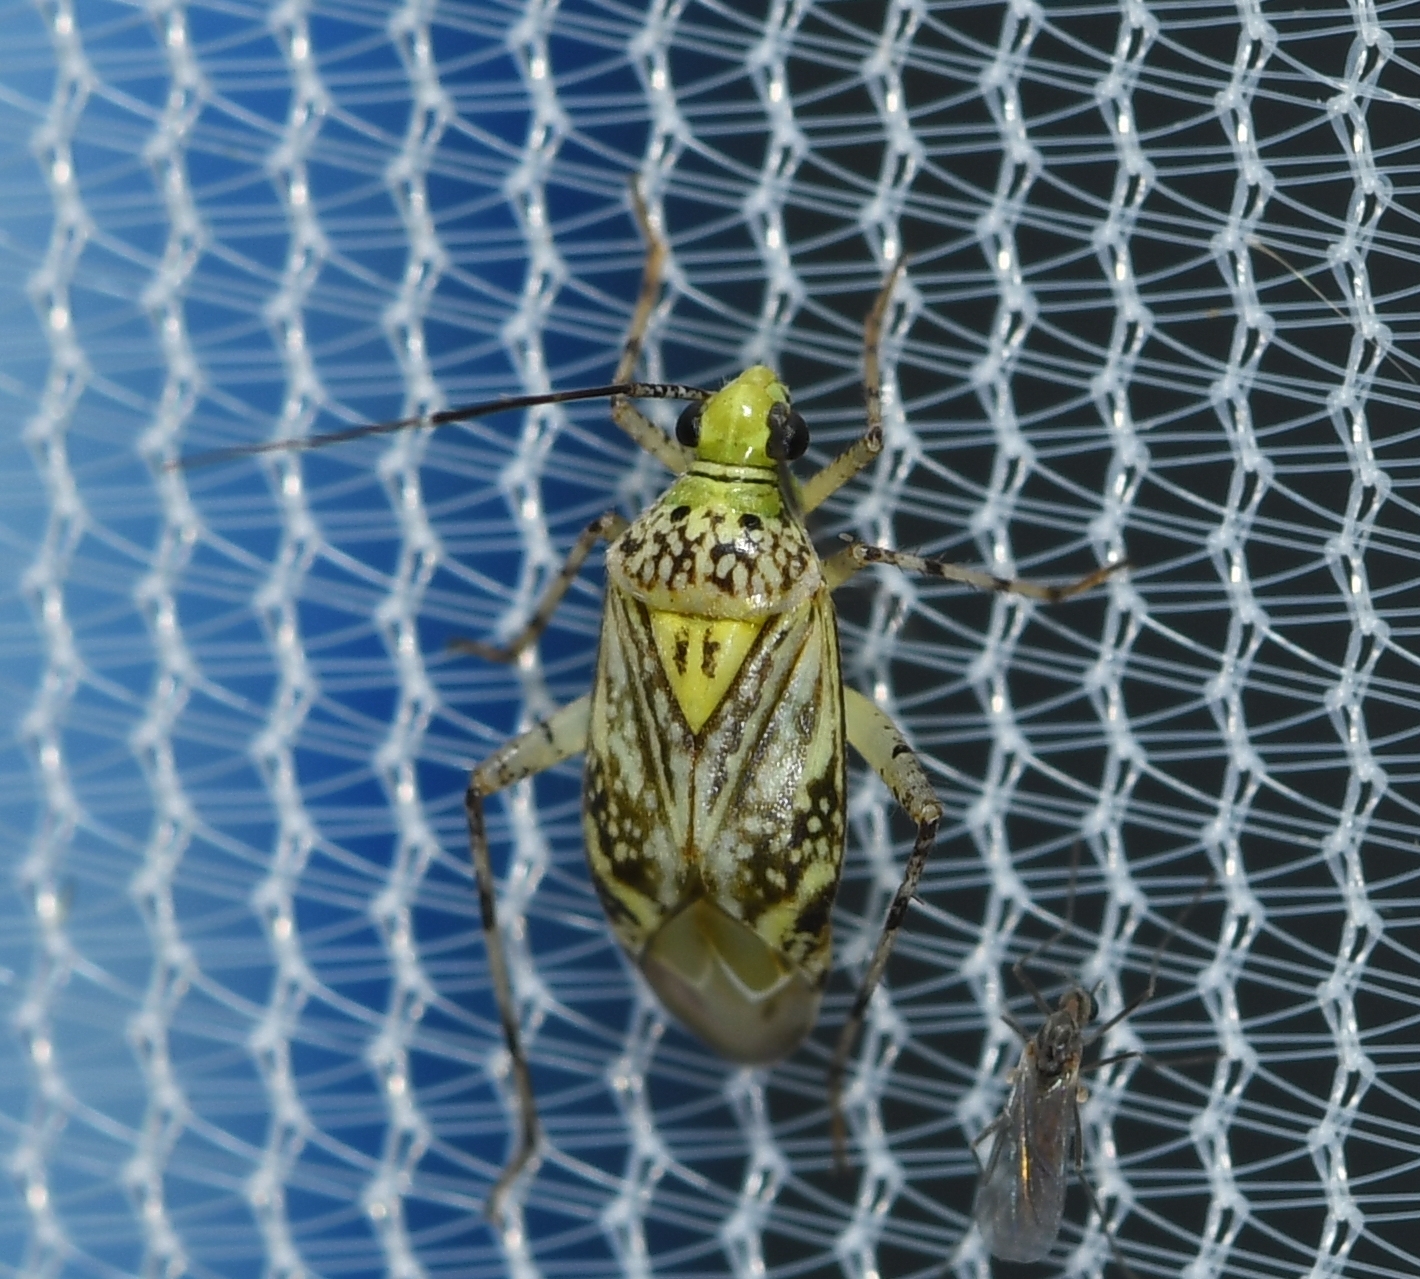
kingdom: Animalia
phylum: Arthropoda
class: Insecta
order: Hemiptera
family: Miridae
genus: Taedia
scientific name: Taedia marmorata
